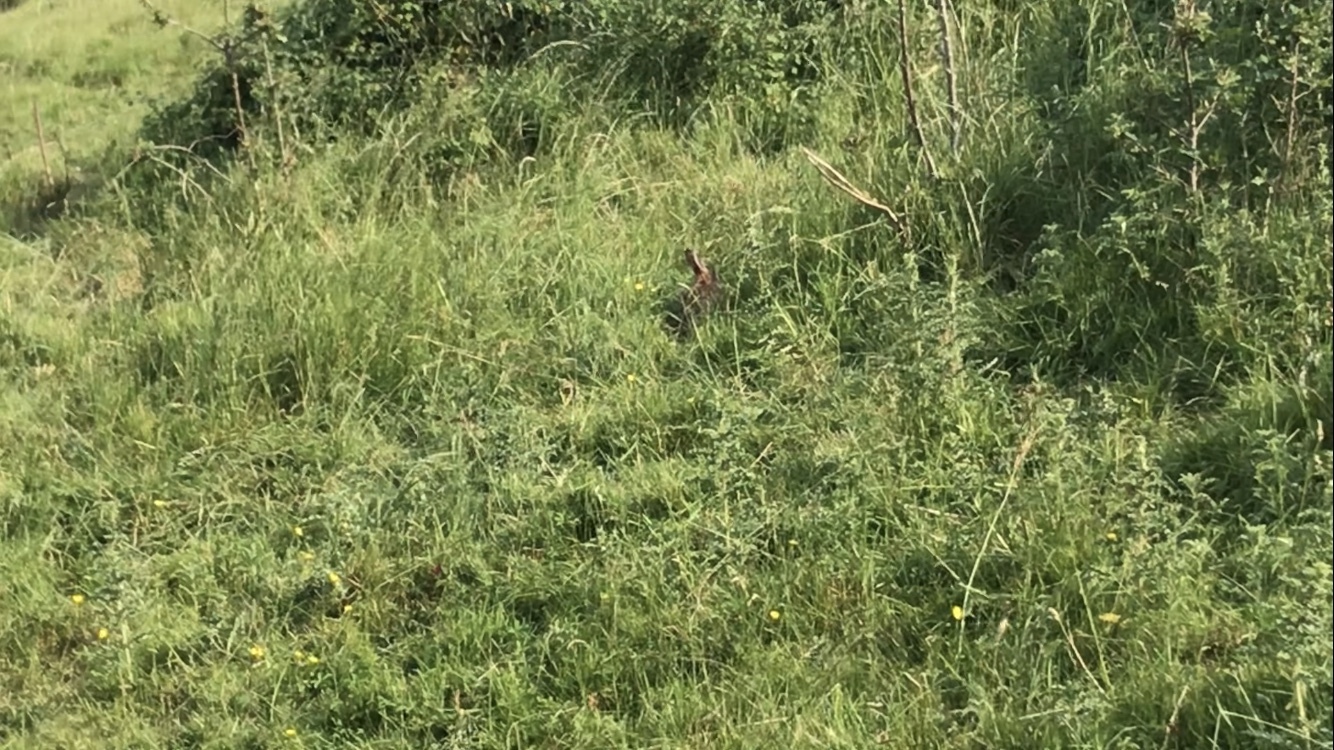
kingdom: Animalia
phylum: Chordata
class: Mammalia
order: Lagomorpha
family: Leporidae
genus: Oryctolagus
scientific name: Oryctolagus cuniculus
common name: European rabbit
